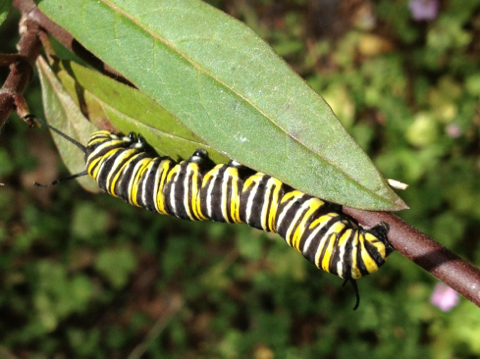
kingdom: Animalia
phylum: Arthropoda
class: Insecta
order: Lepidoptera
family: Nymphalidae
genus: Danaus
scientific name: Danaus plexippus
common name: Monarch
